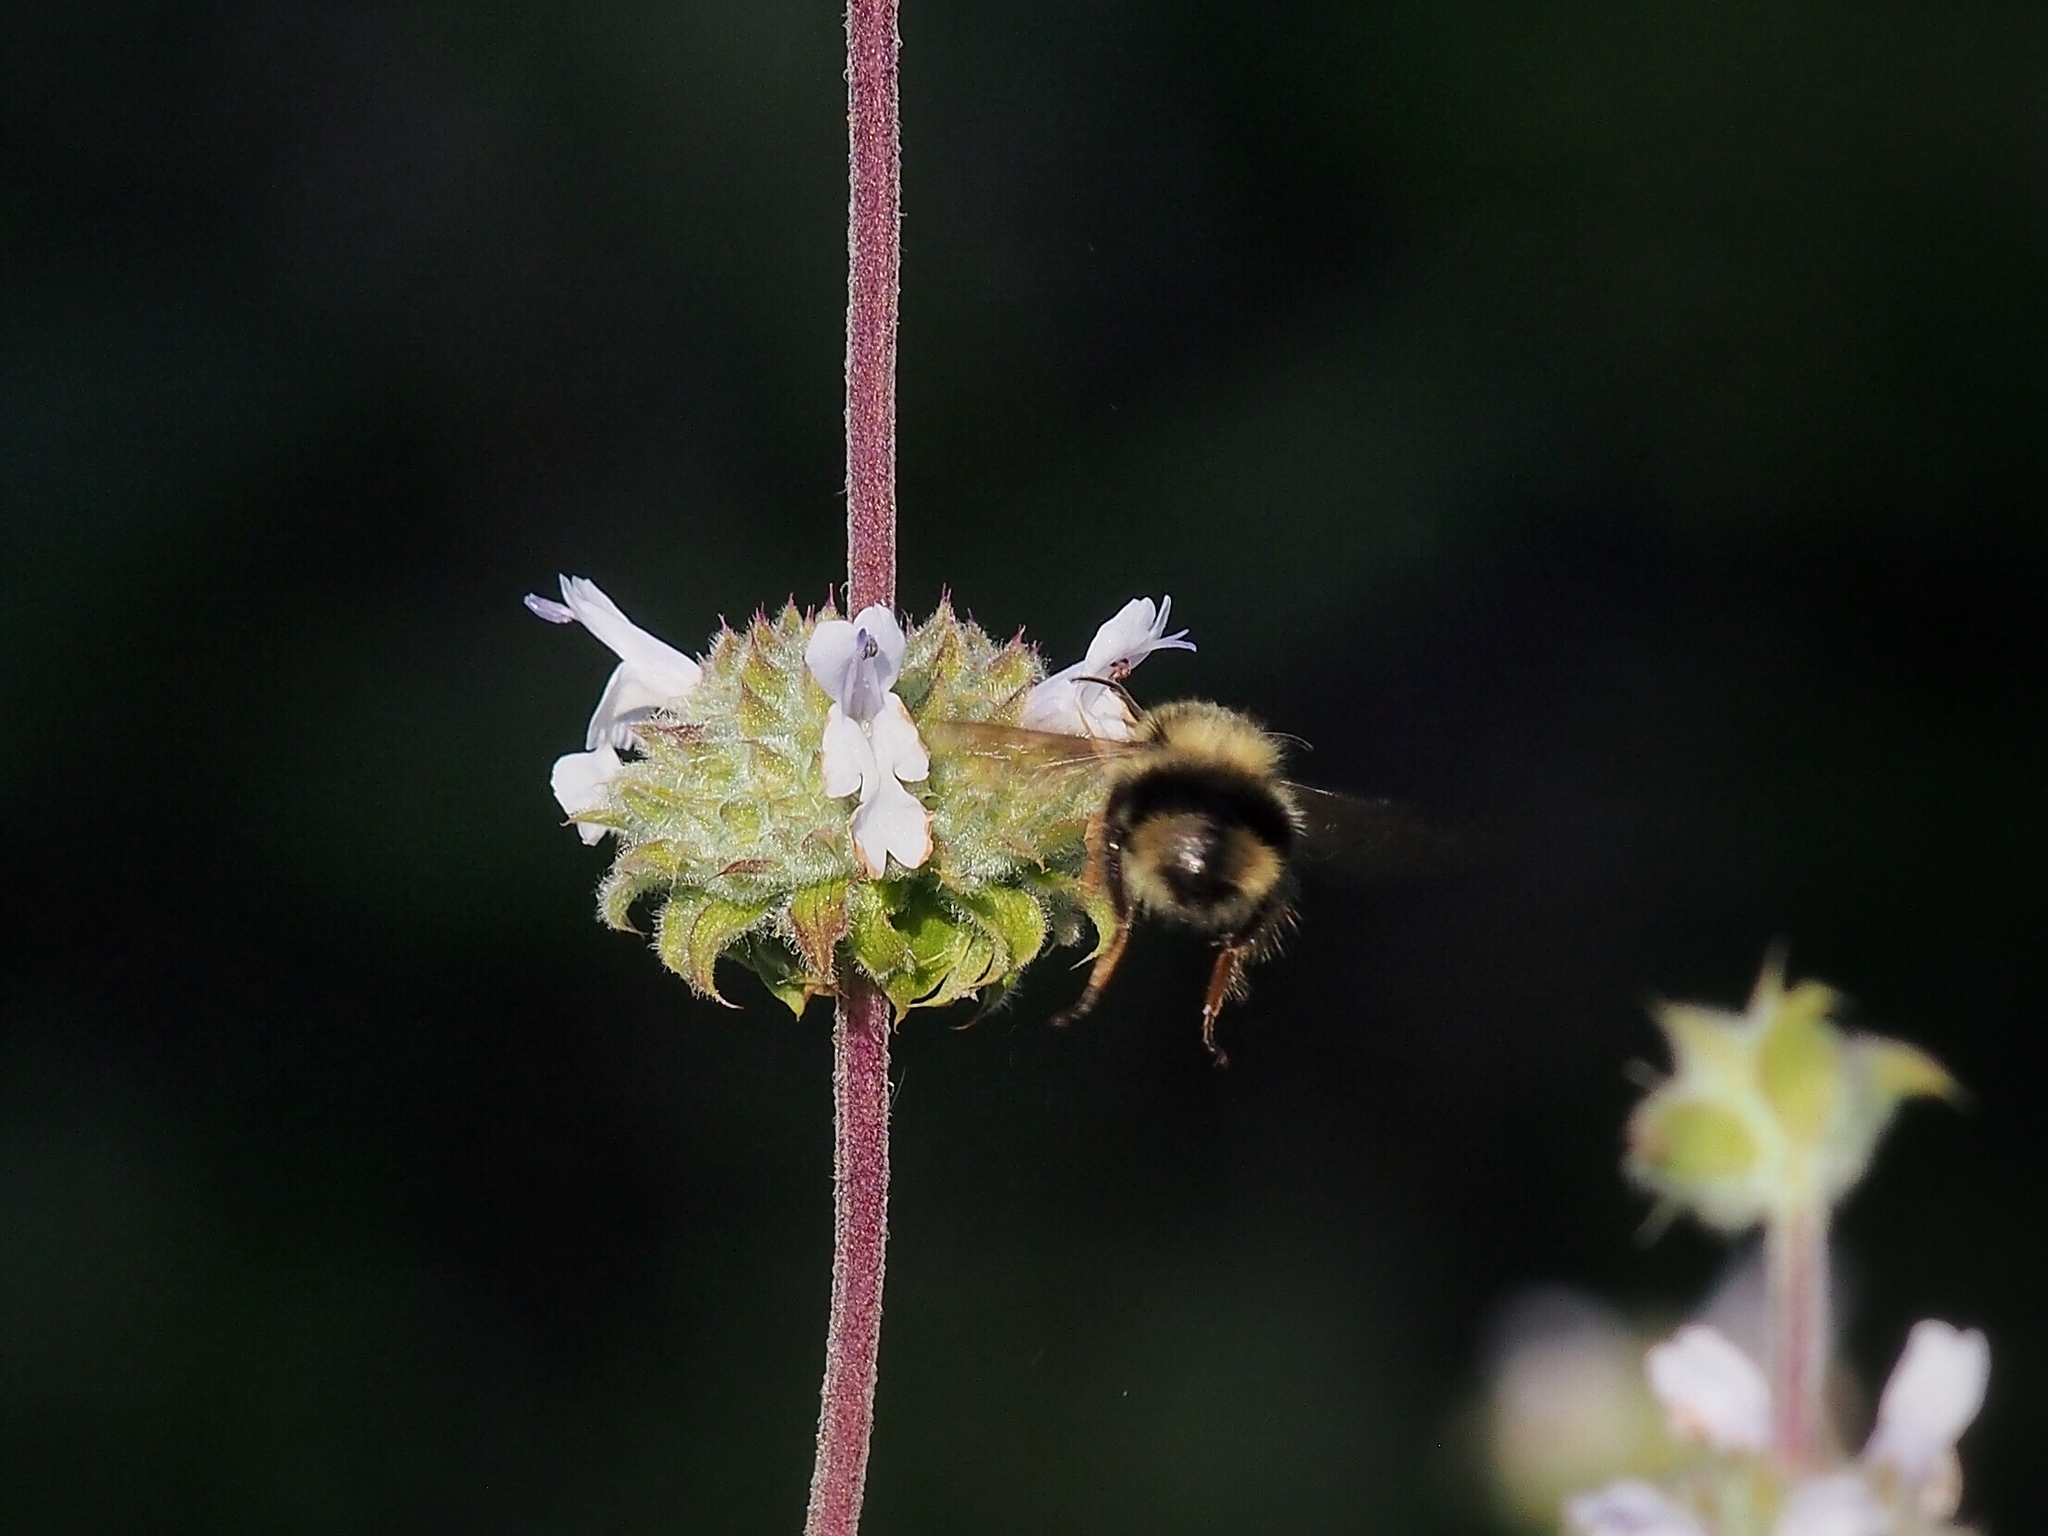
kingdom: Animalia
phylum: Arthropoda
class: Insecta
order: Hymenoptera
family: Apidae
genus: Bombus
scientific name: Bombus melanopygus
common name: Black tail bumble bee
